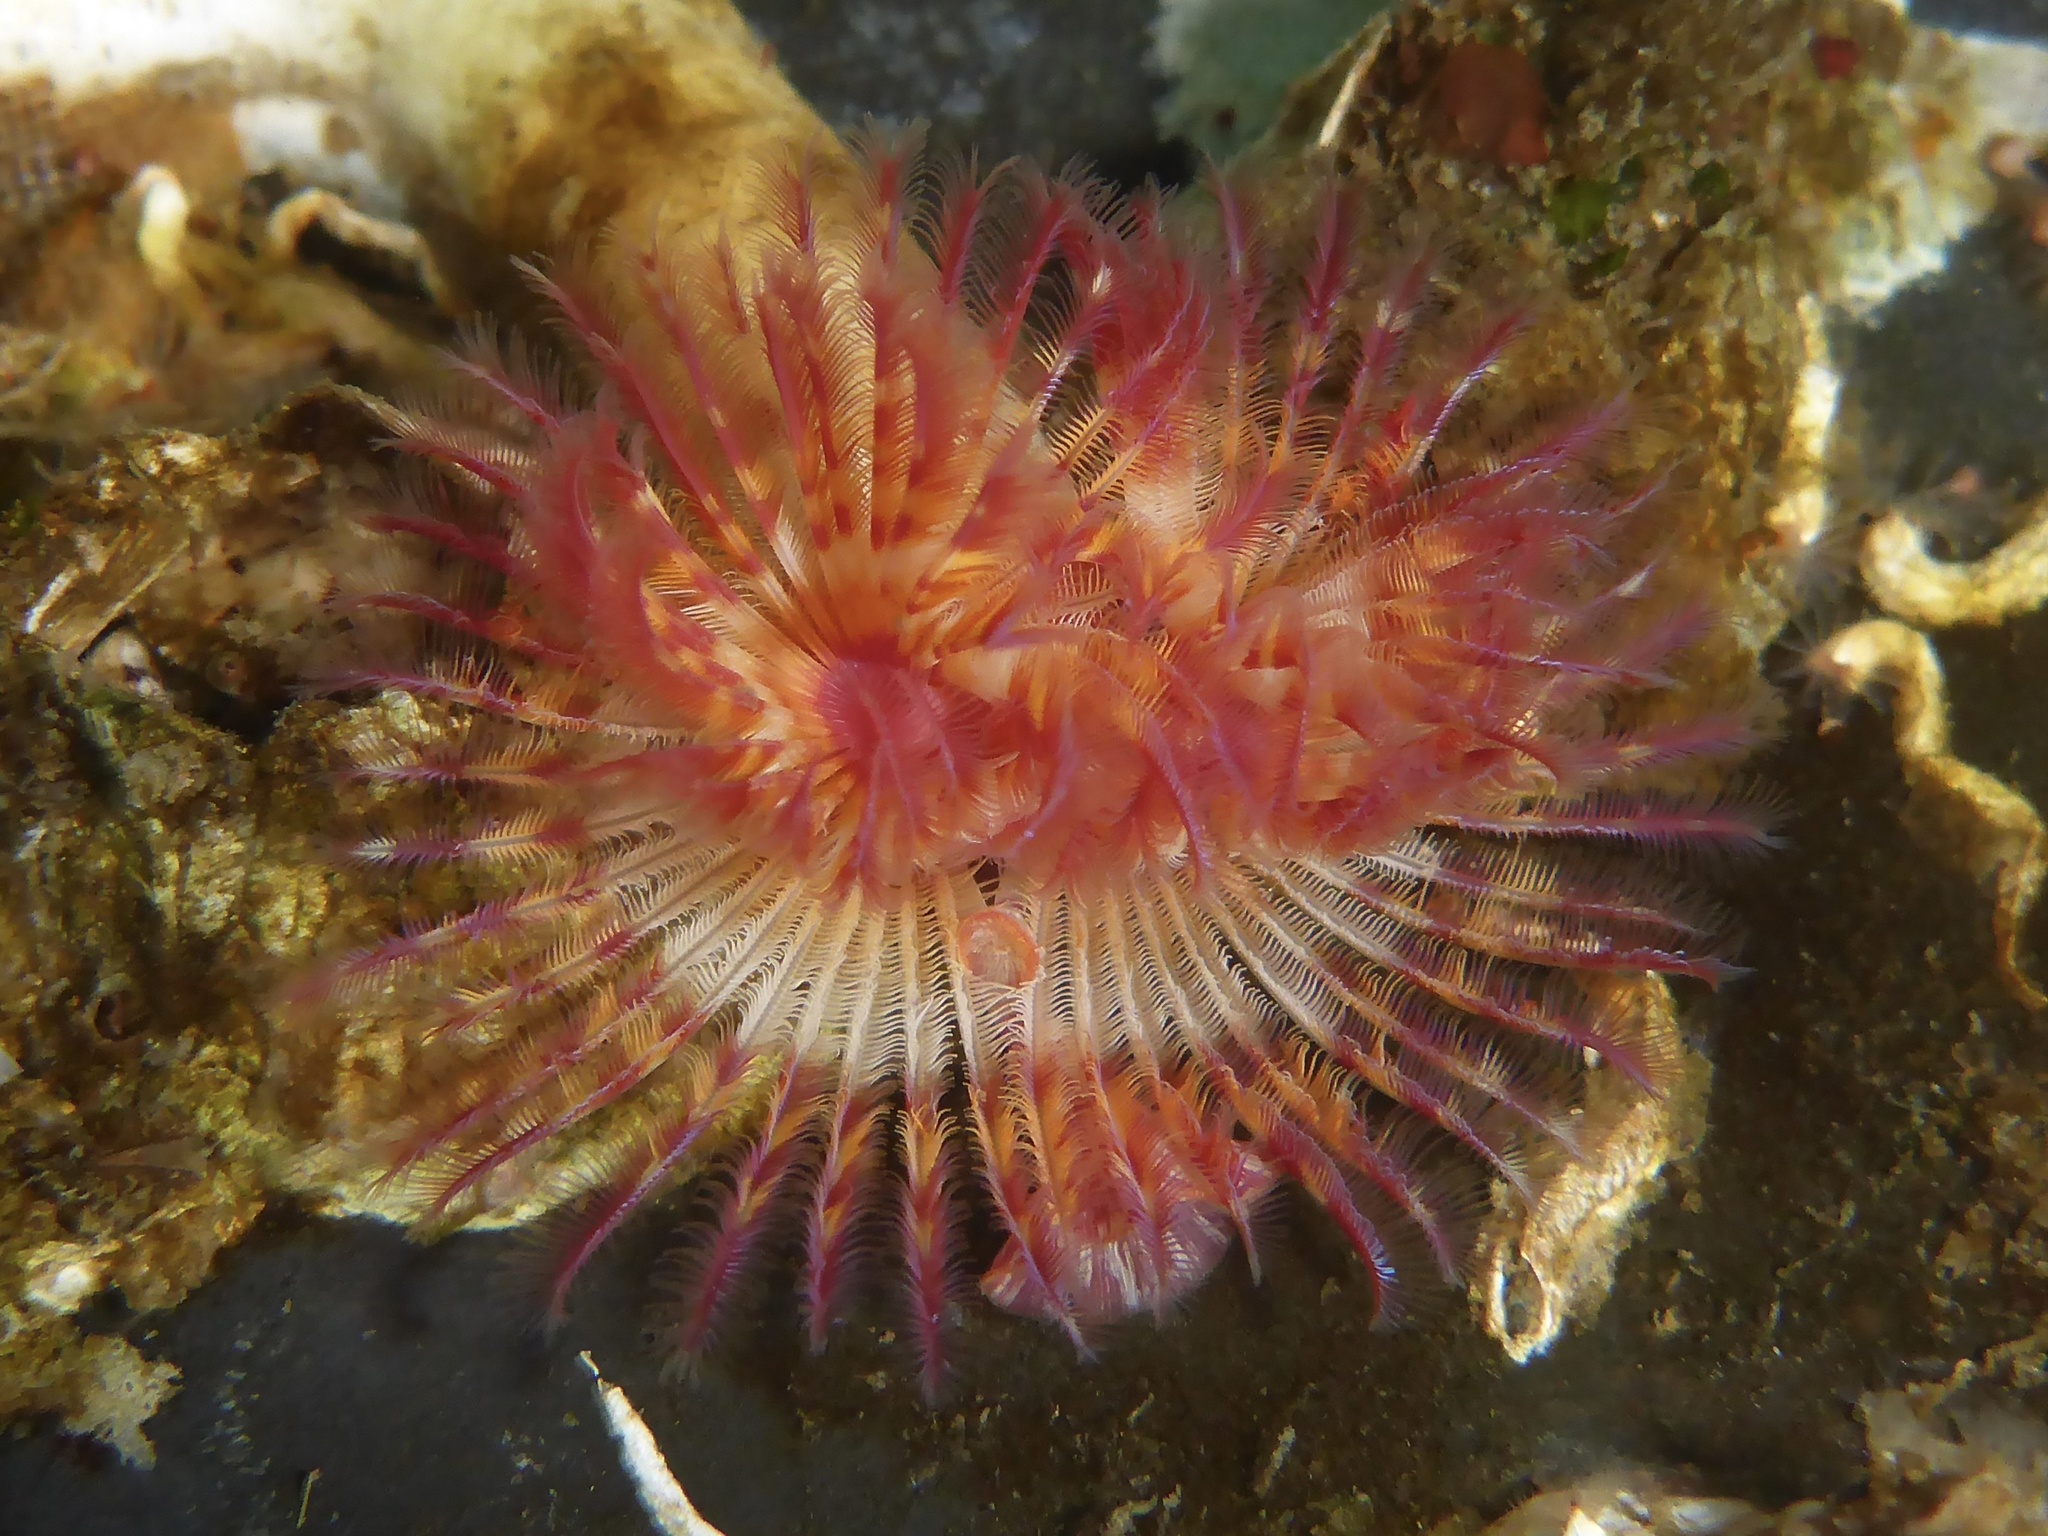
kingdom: Animalia
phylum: Annelida
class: Polychaeta
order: Sabellida
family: Serpulidae
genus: Serpula
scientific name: Serpula columbiana
